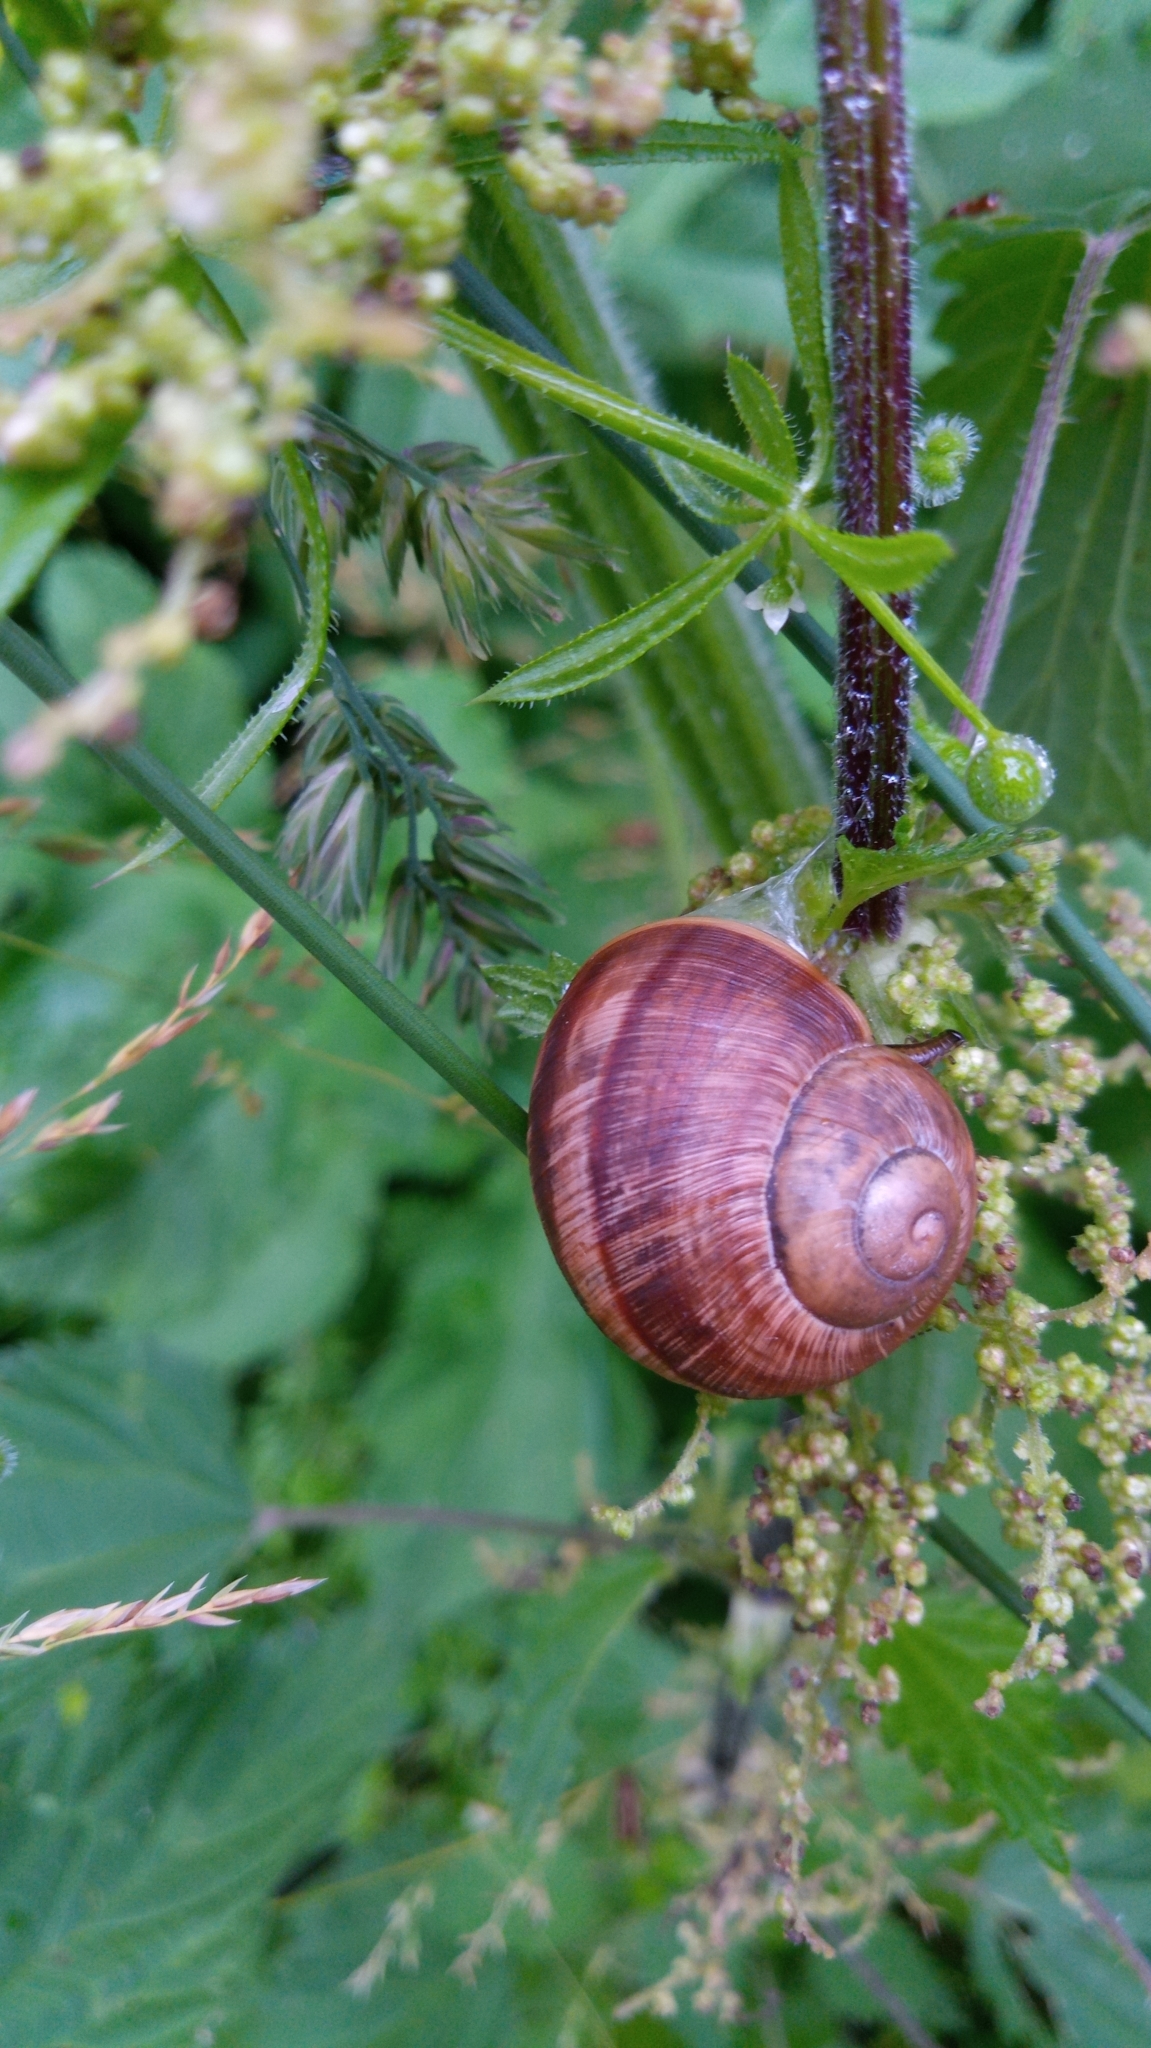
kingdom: Animalia
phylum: Mollusca
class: Gastropoda
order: Stylommatophora
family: Helicidae
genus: Helix
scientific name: Helix pomatia
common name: Roman snail
